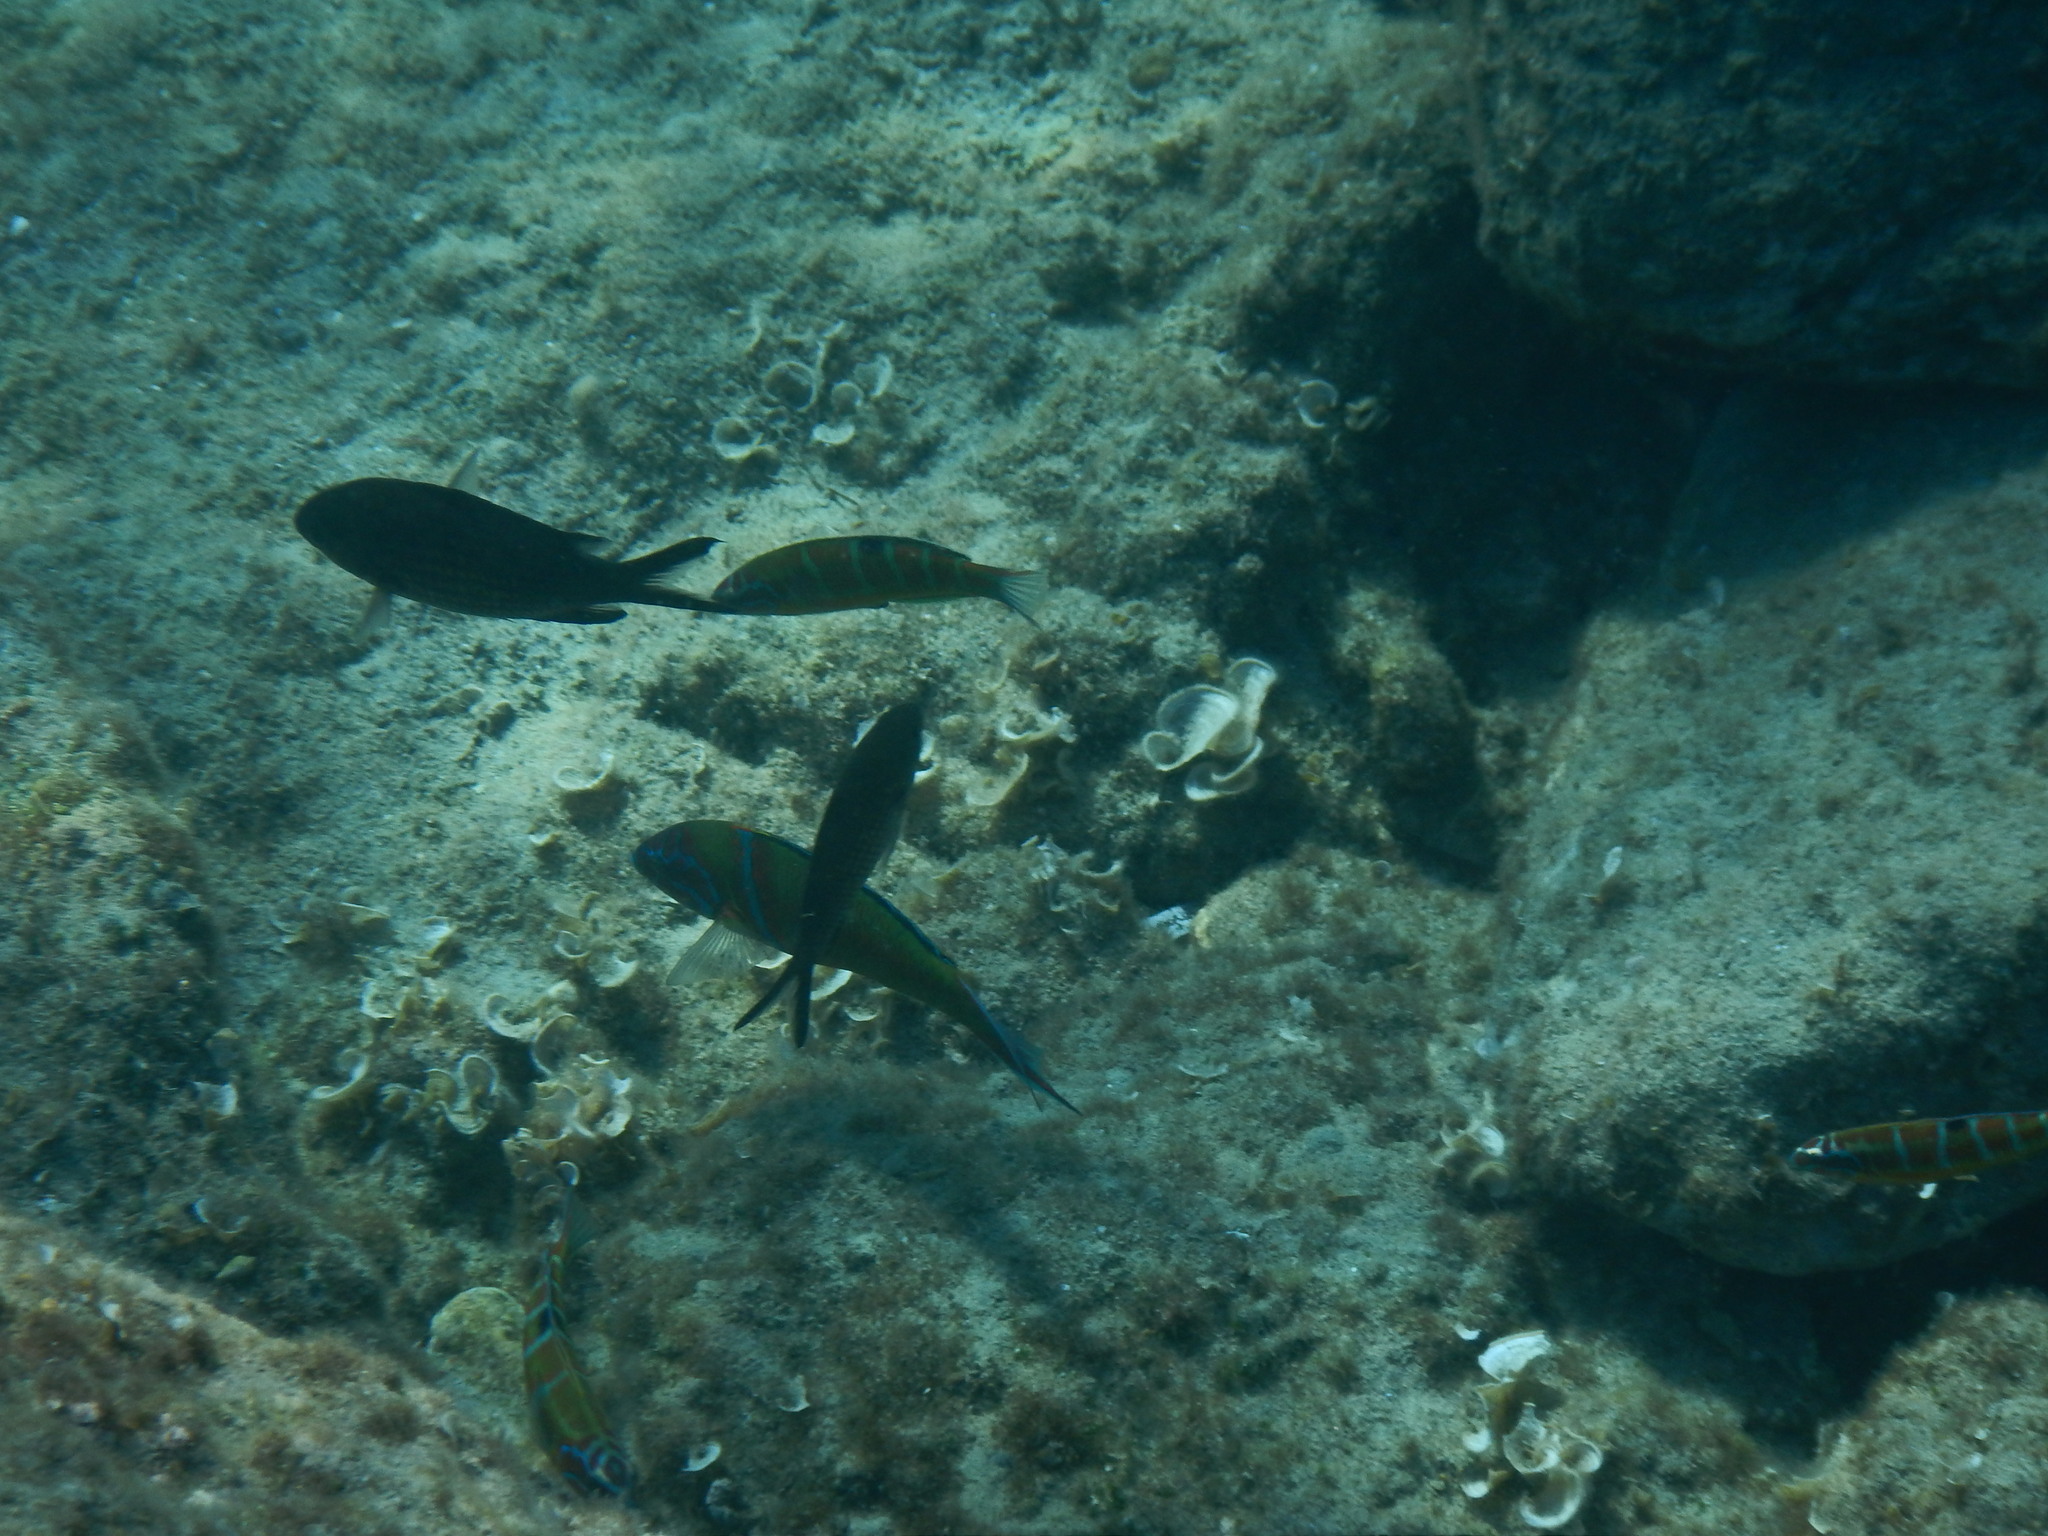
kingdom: Animalia
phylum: Chordata
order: Perciformes
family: Labridae
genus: Thalassoma
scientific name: Thalassoma pavo
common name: Ornate wrasse
